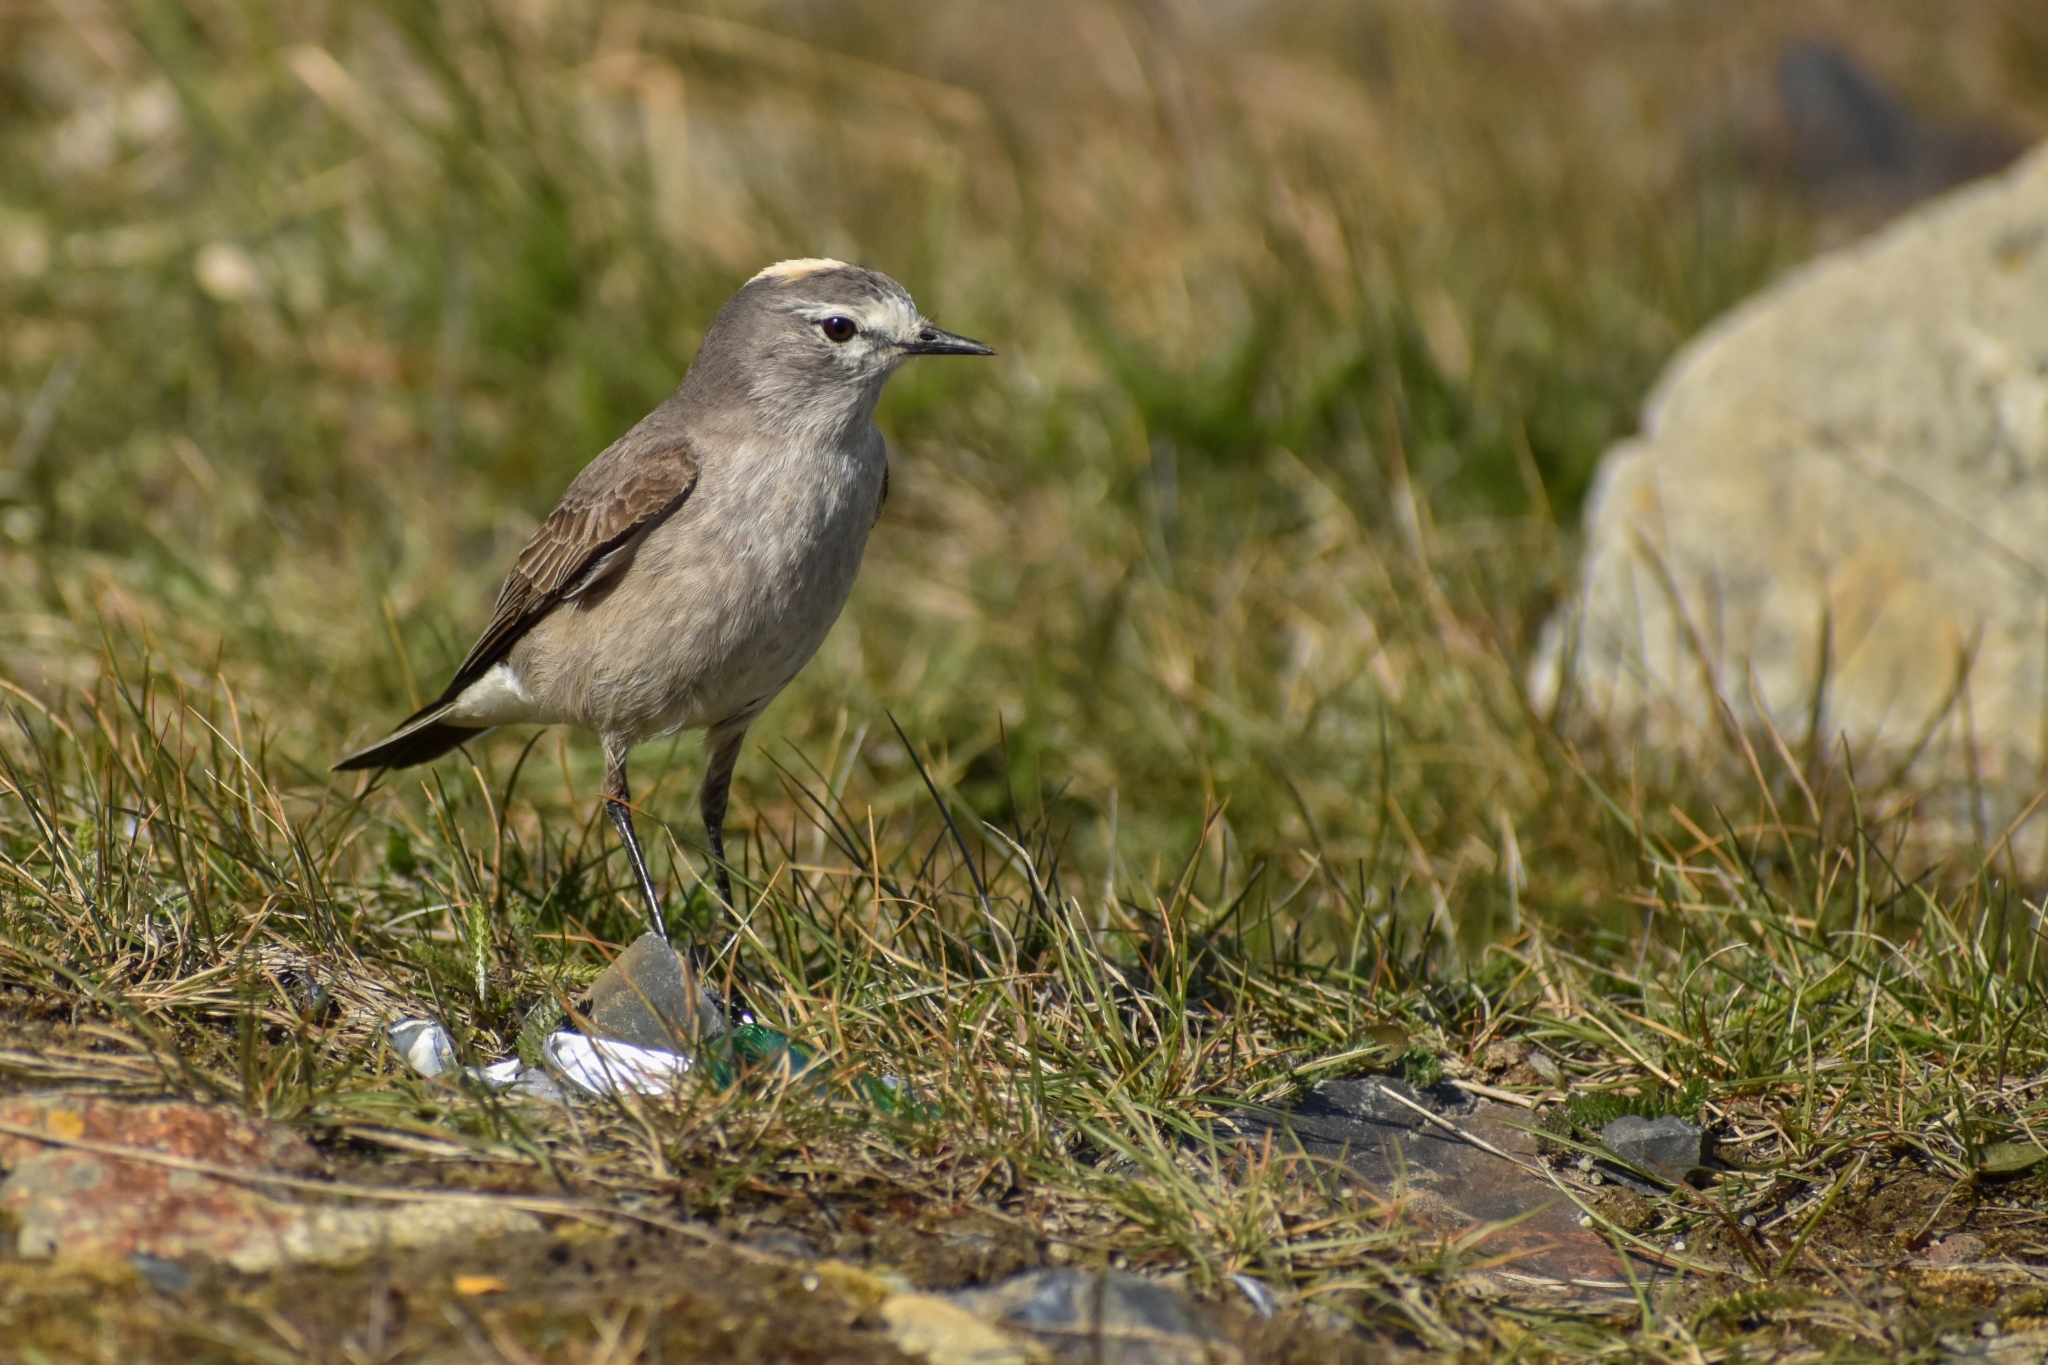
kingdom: Animalia
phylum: Chordata
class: Aves
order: Passeriformes
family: Tyrannidae
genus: Muscisaxicola
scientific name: Muscisaxicola flavinucha
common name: Ochre-naped ground tyrant
